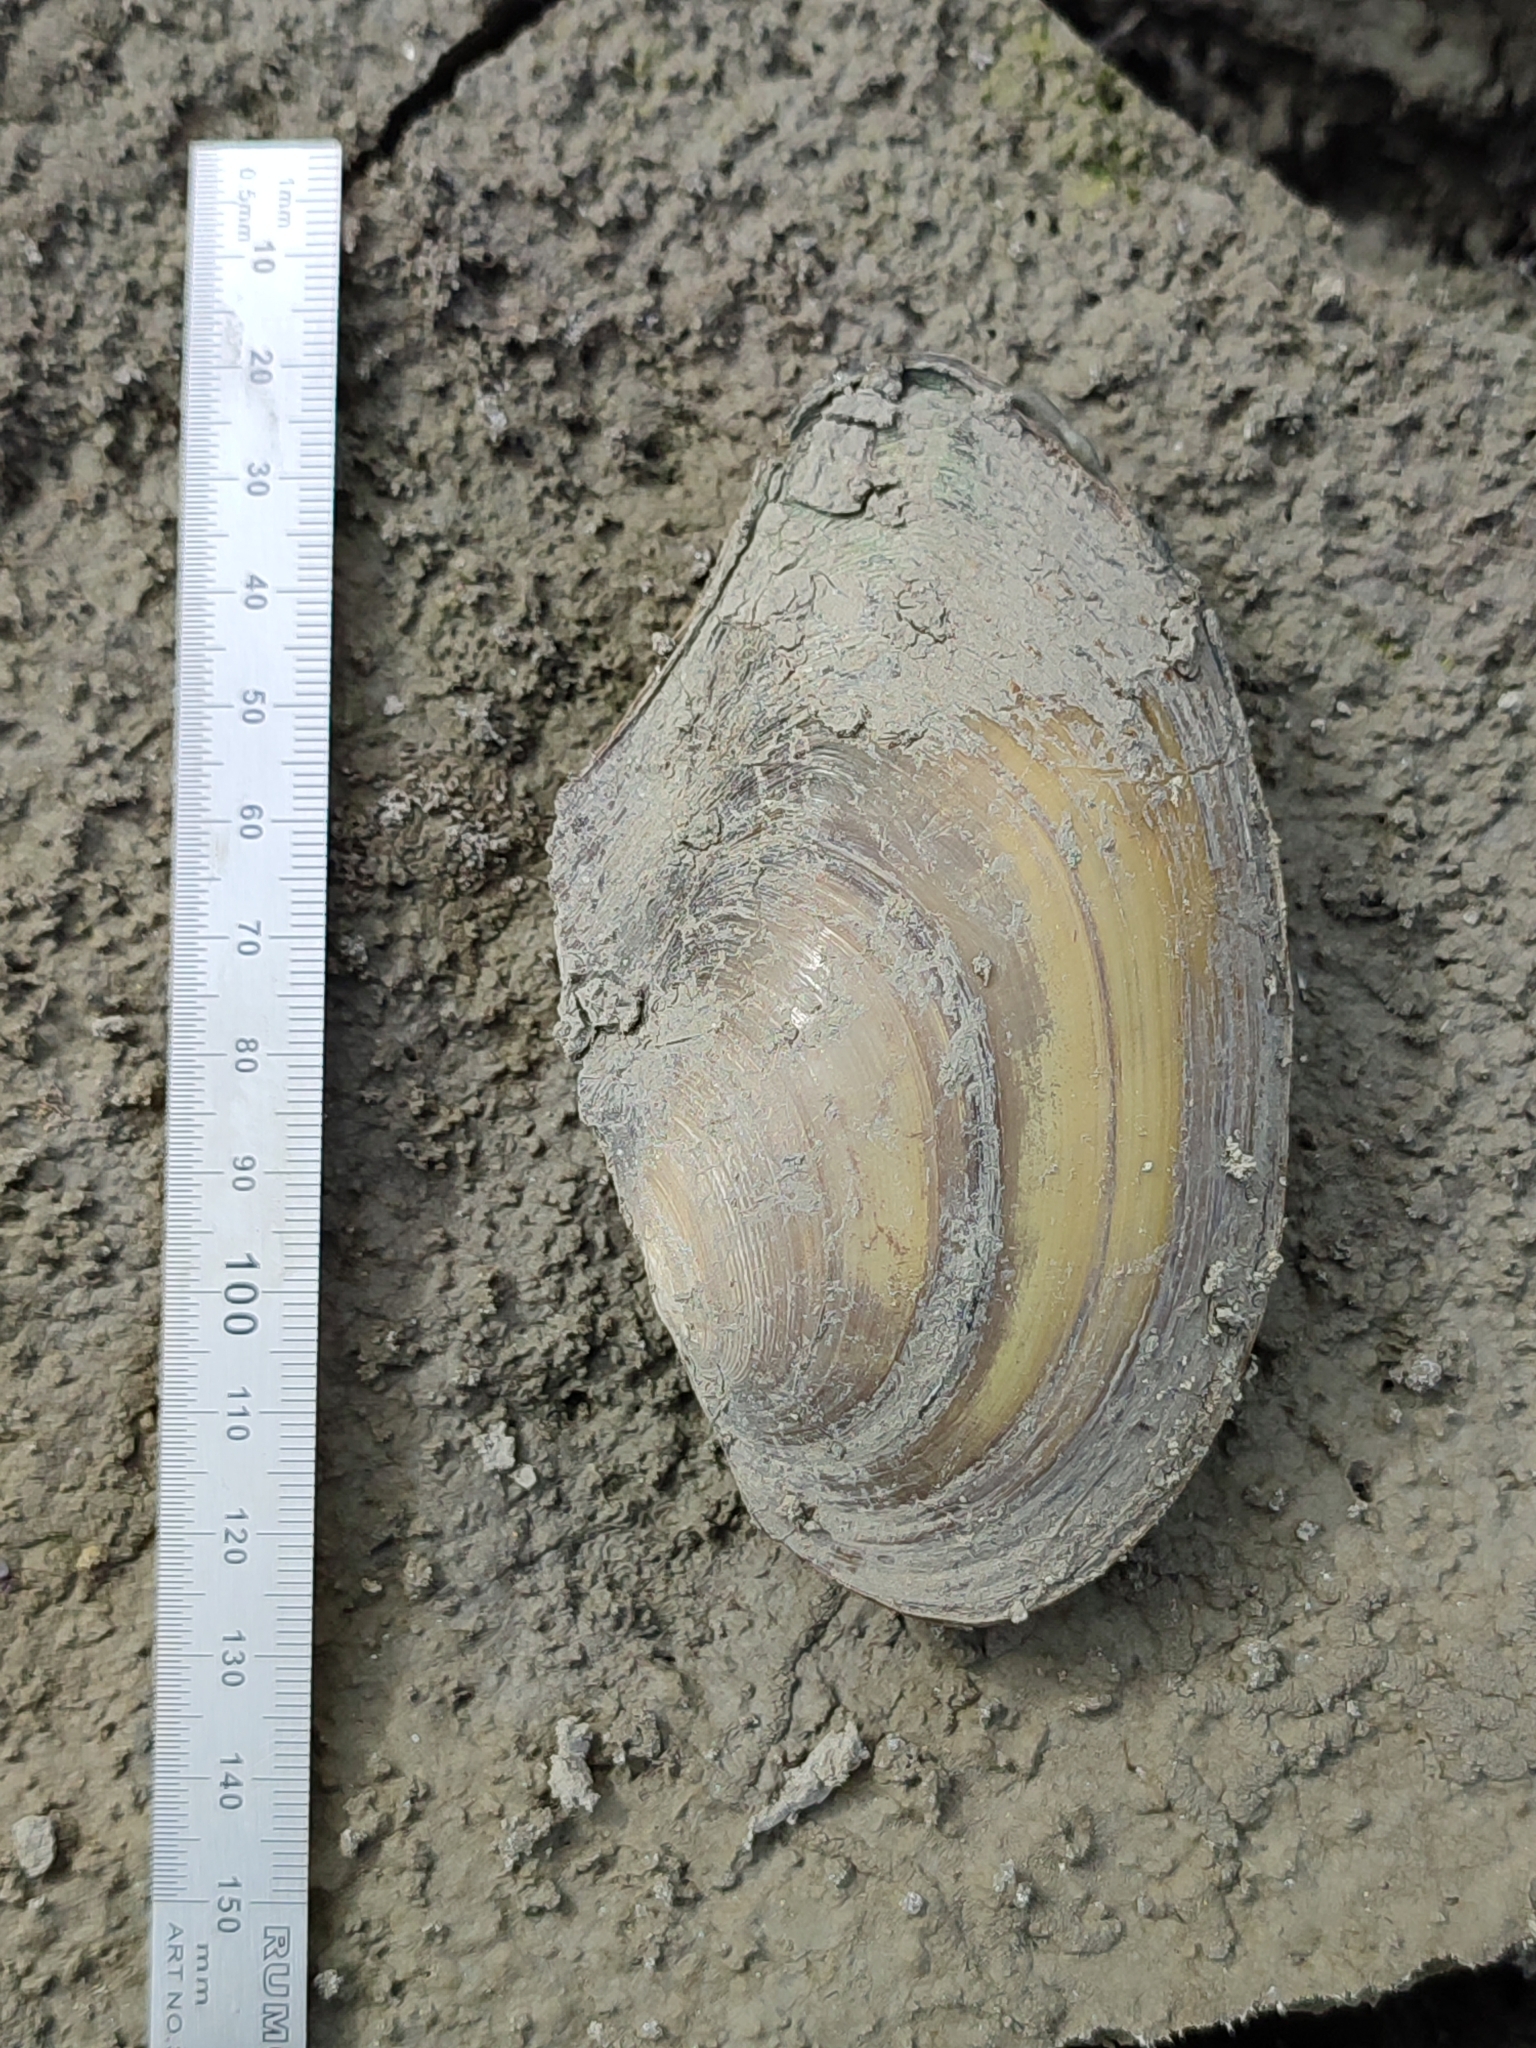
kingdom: Animalia
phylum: Mollusca
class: Bivalvia
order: Unionida
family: Unionidae
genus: Anodonta
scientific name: Anodonta anatina
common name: Duck mussel
